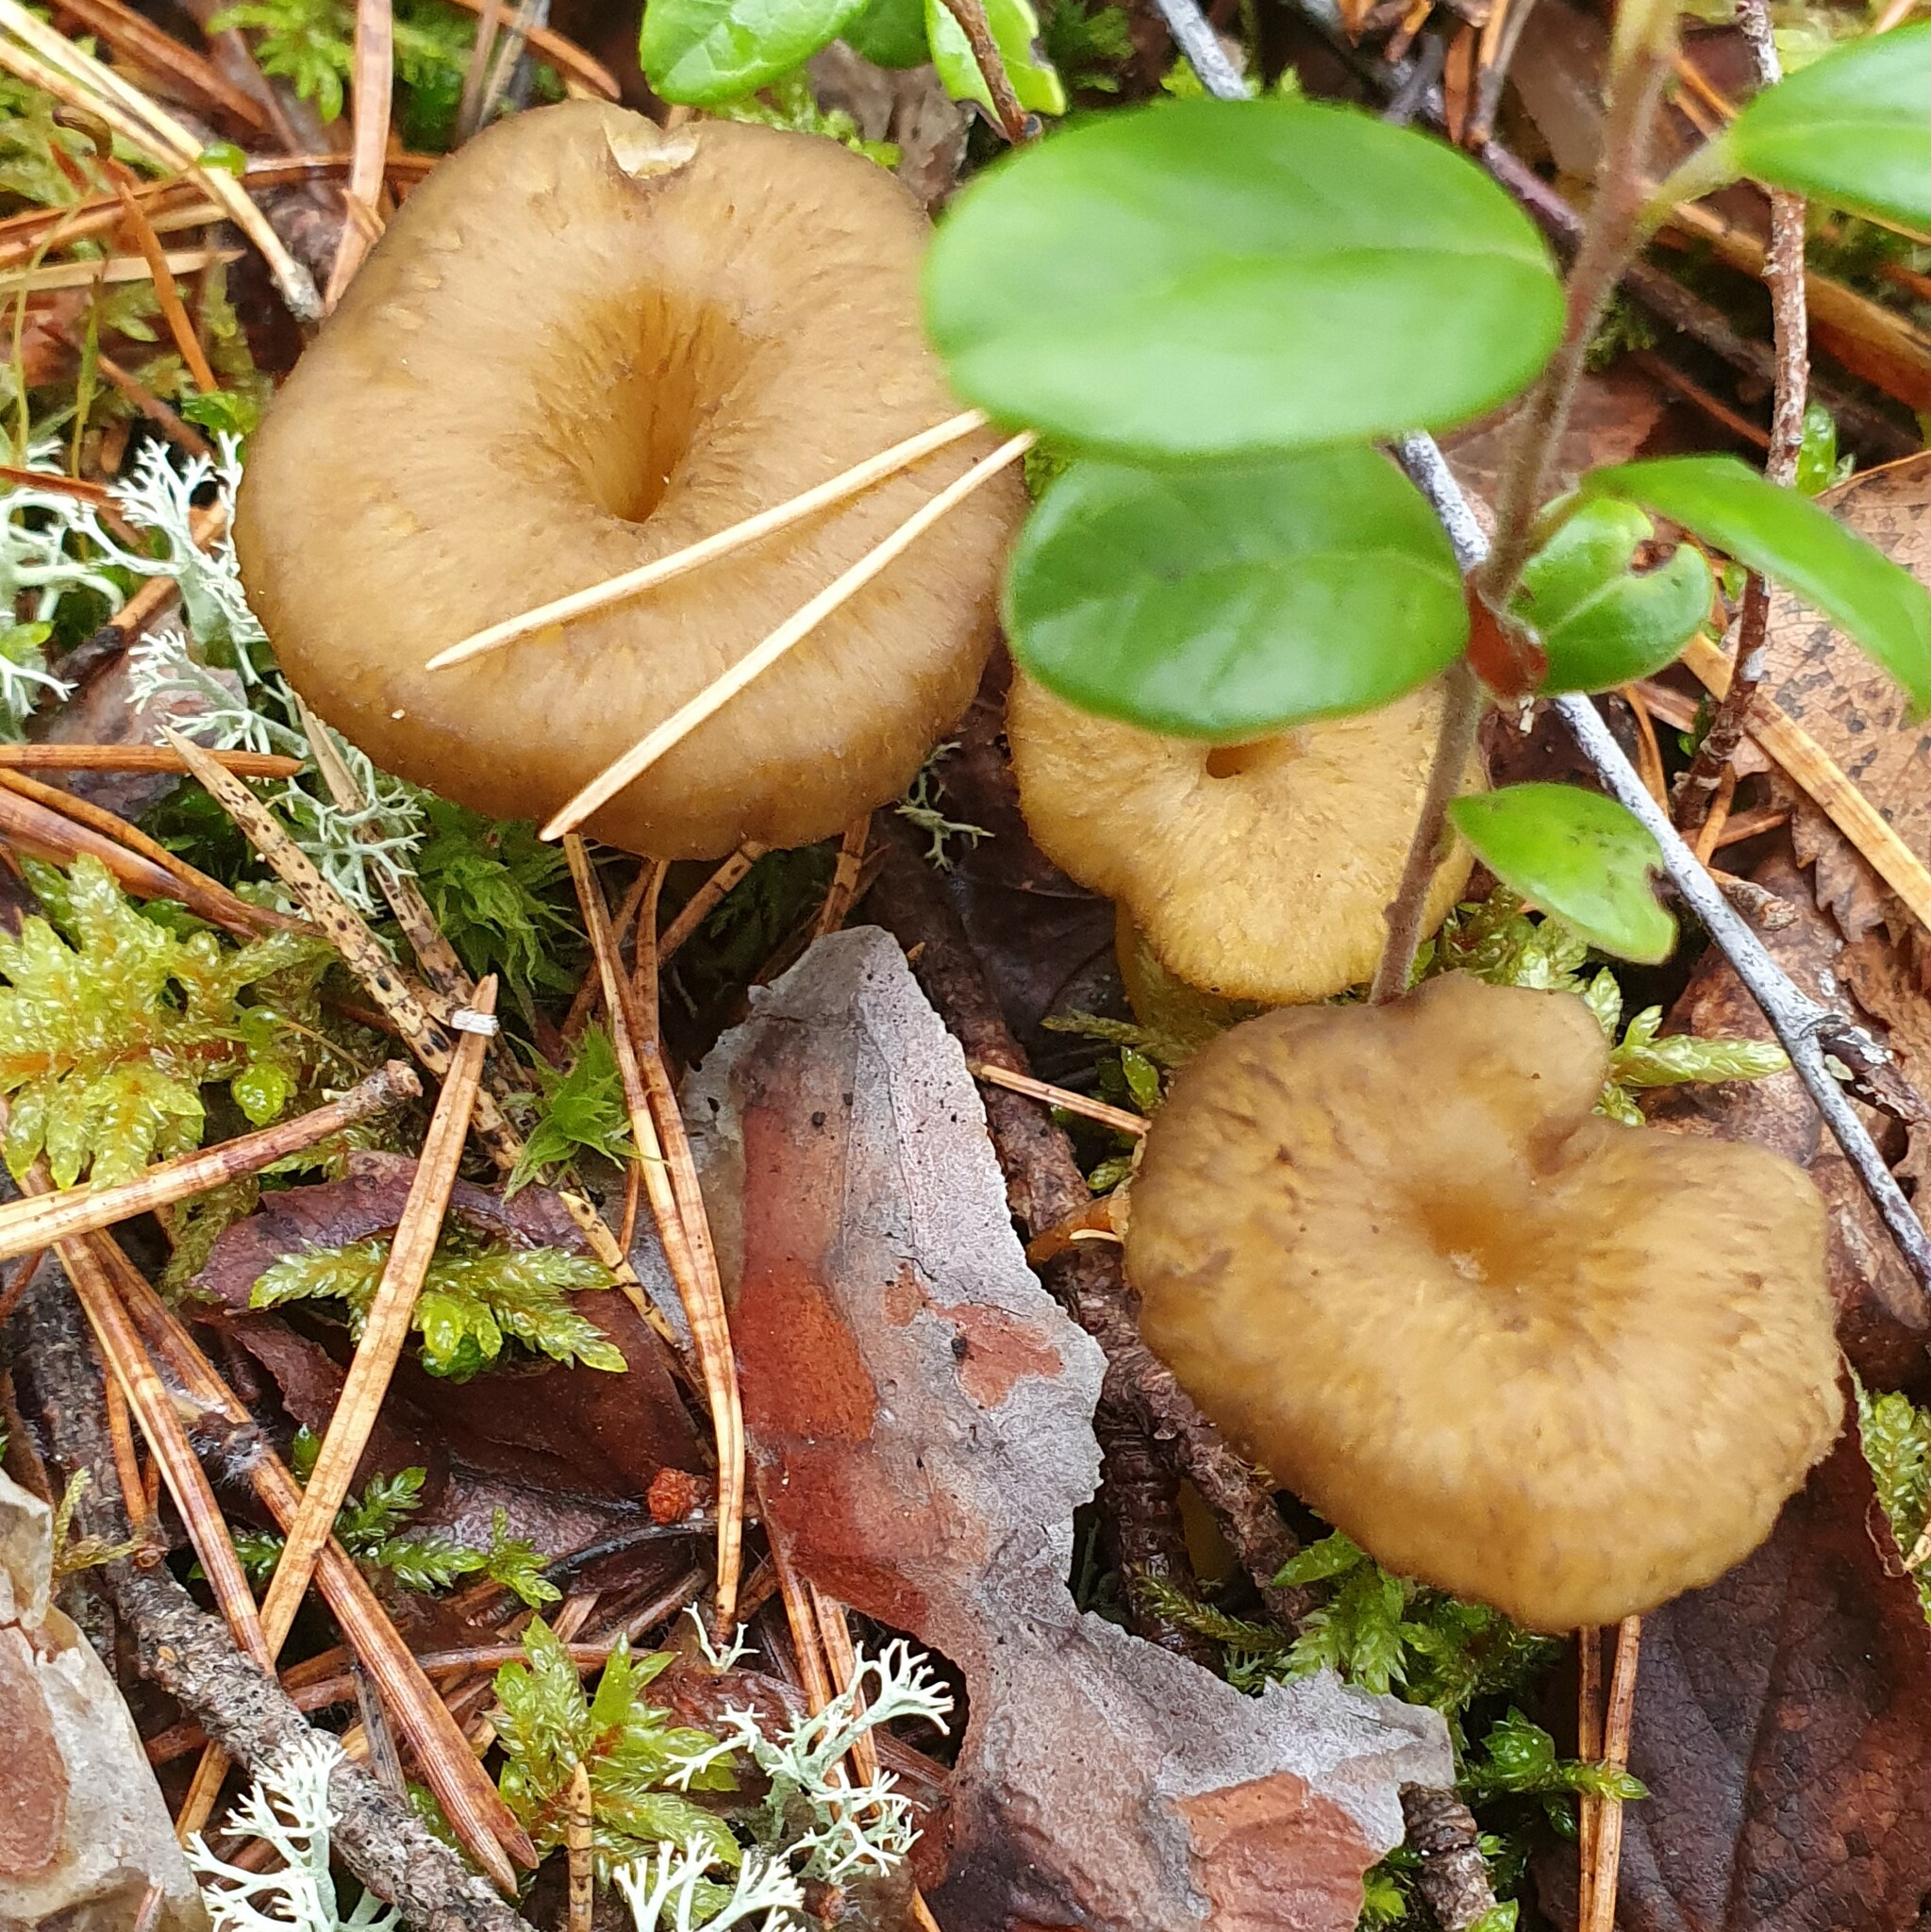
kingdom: Fungi
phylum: Basidiomycota
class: Agaricomycetes
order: Cantharellales
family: Hydnaceae
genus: Craterellus
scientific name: Craterellus tubaeformis
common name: Yellowfoot
